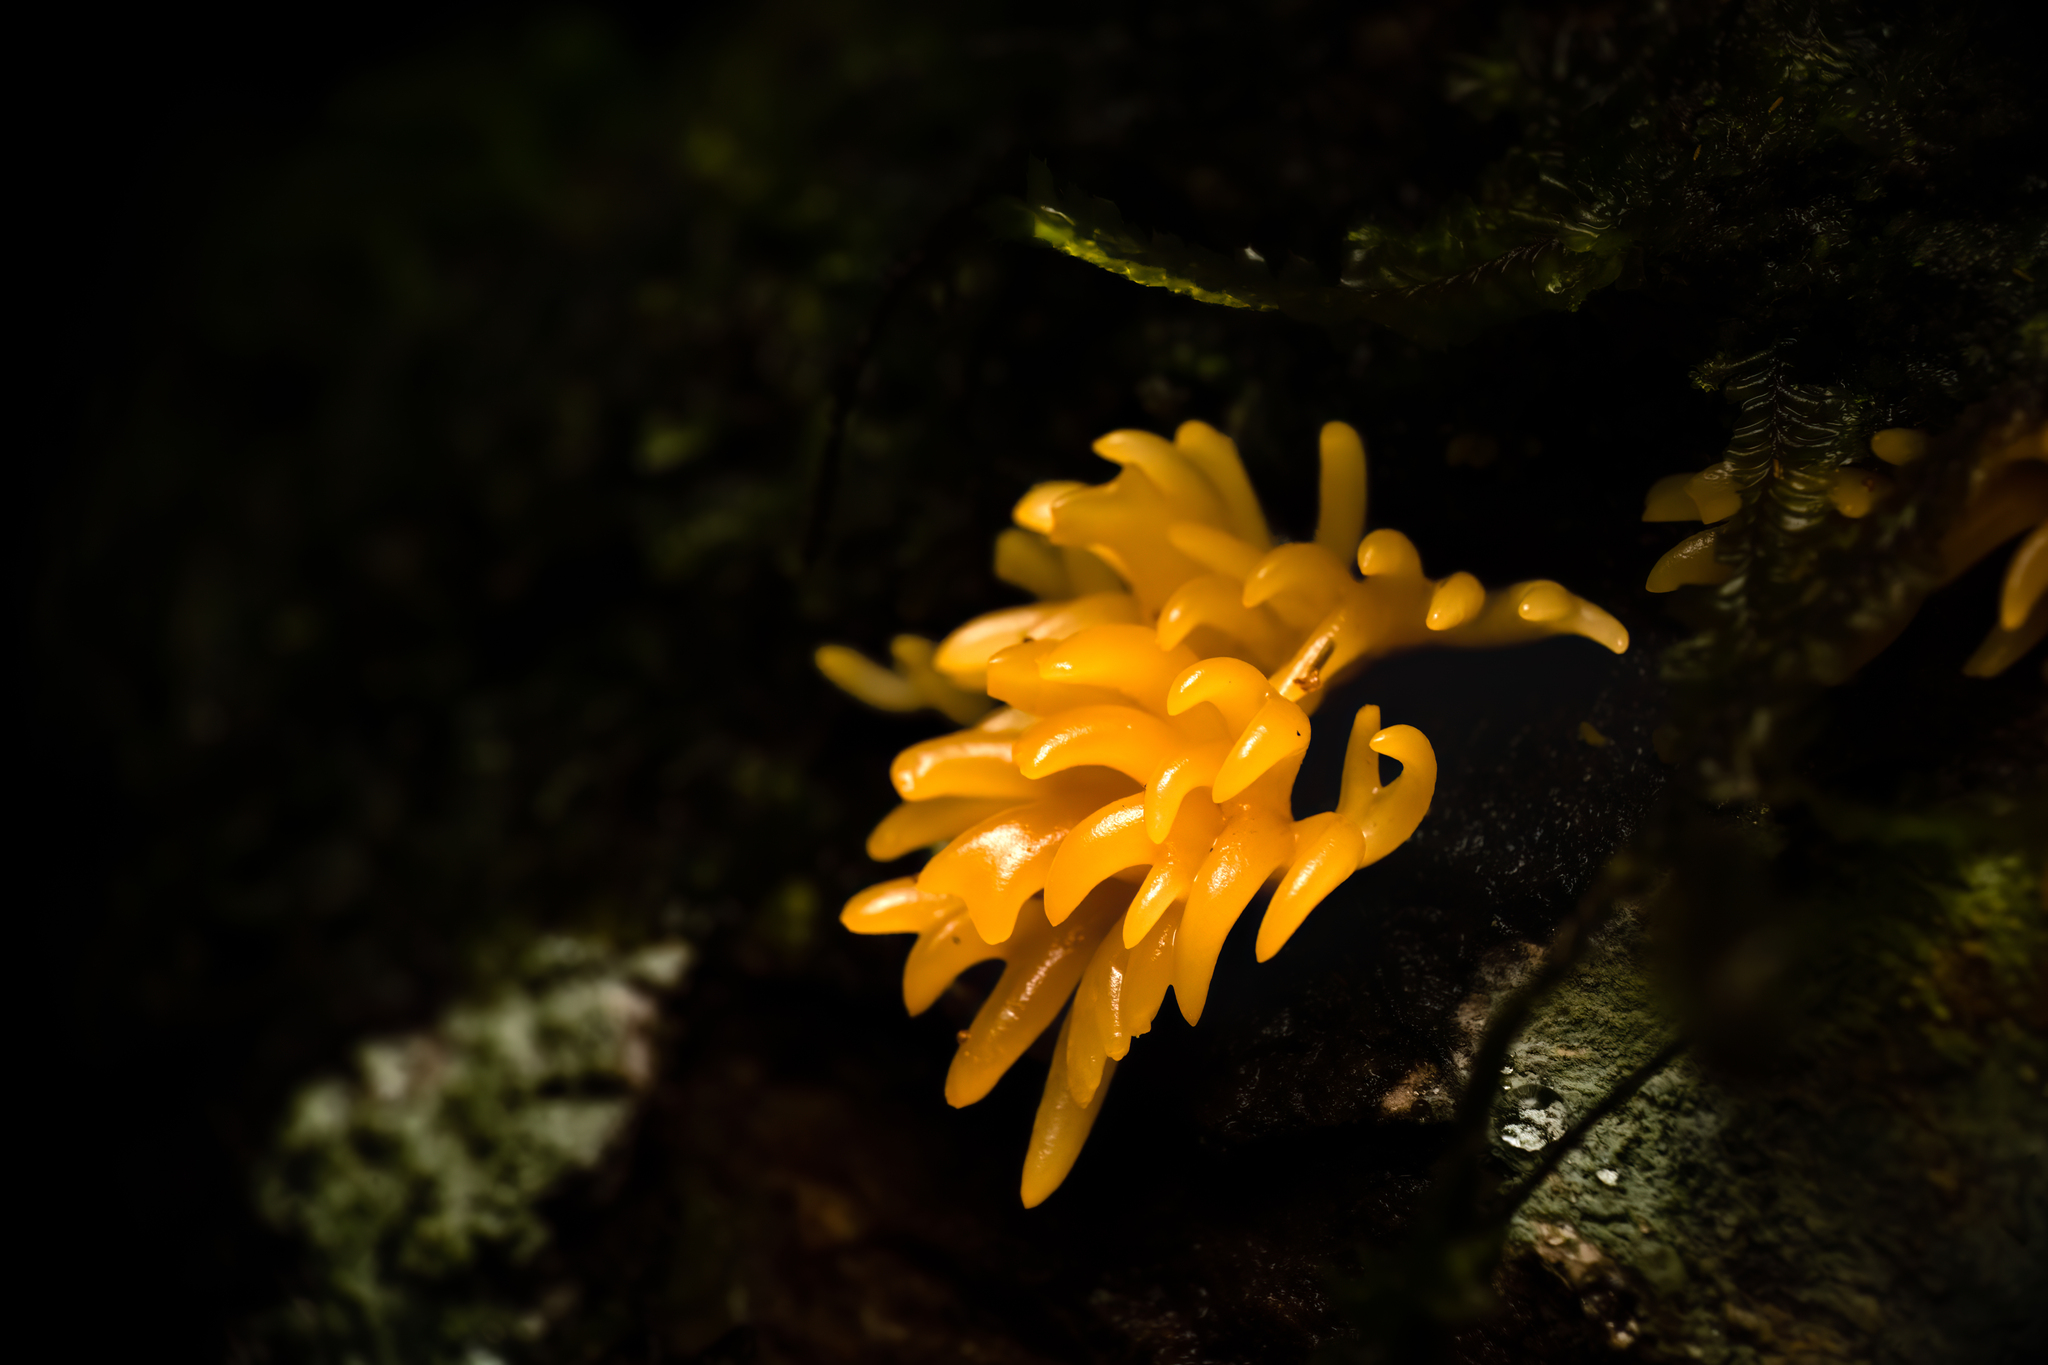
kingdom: Fungi
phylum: Basidiomycota
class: Dacrymycetes
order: Dacrymycetales
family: Dacrymycetaceae
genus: Calocera
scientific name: Calocera cornea
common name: Small stagshorn
